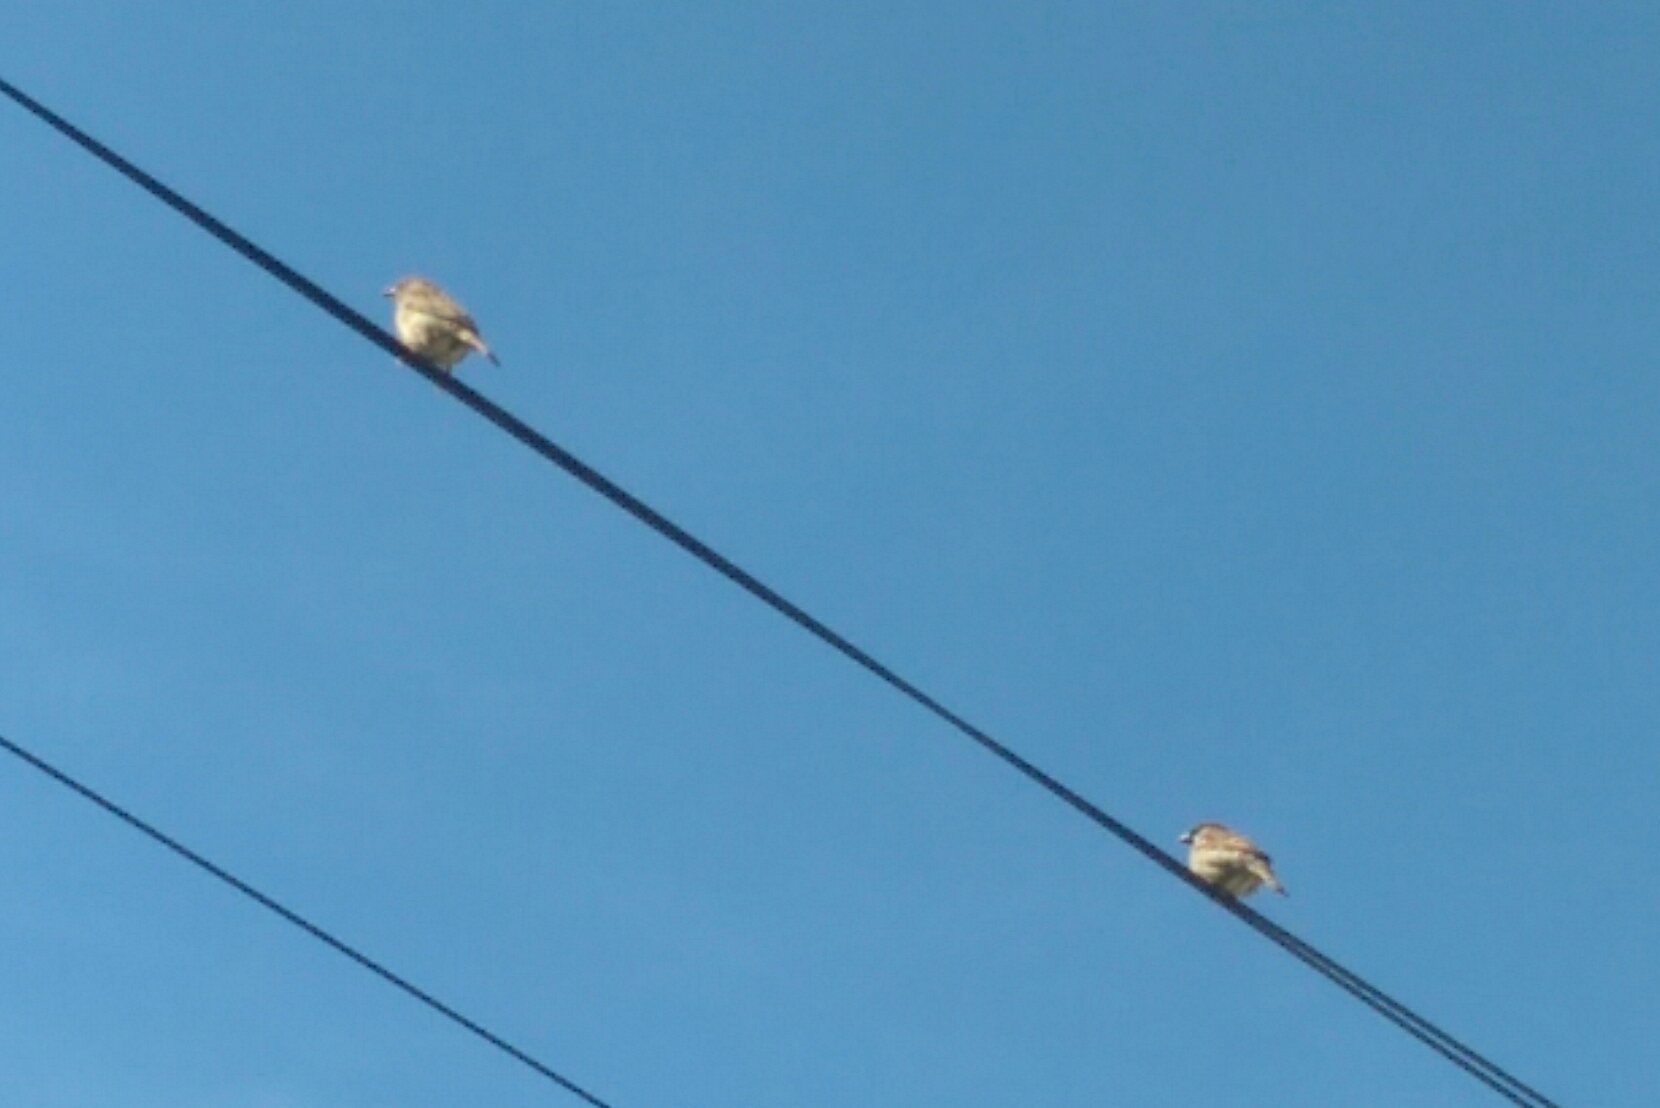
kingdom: Animalia
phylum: Chordata
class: Aves
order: Passeriformes
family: Passeridae
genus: Passer
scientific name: Passer domesticus
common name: House sparrow
